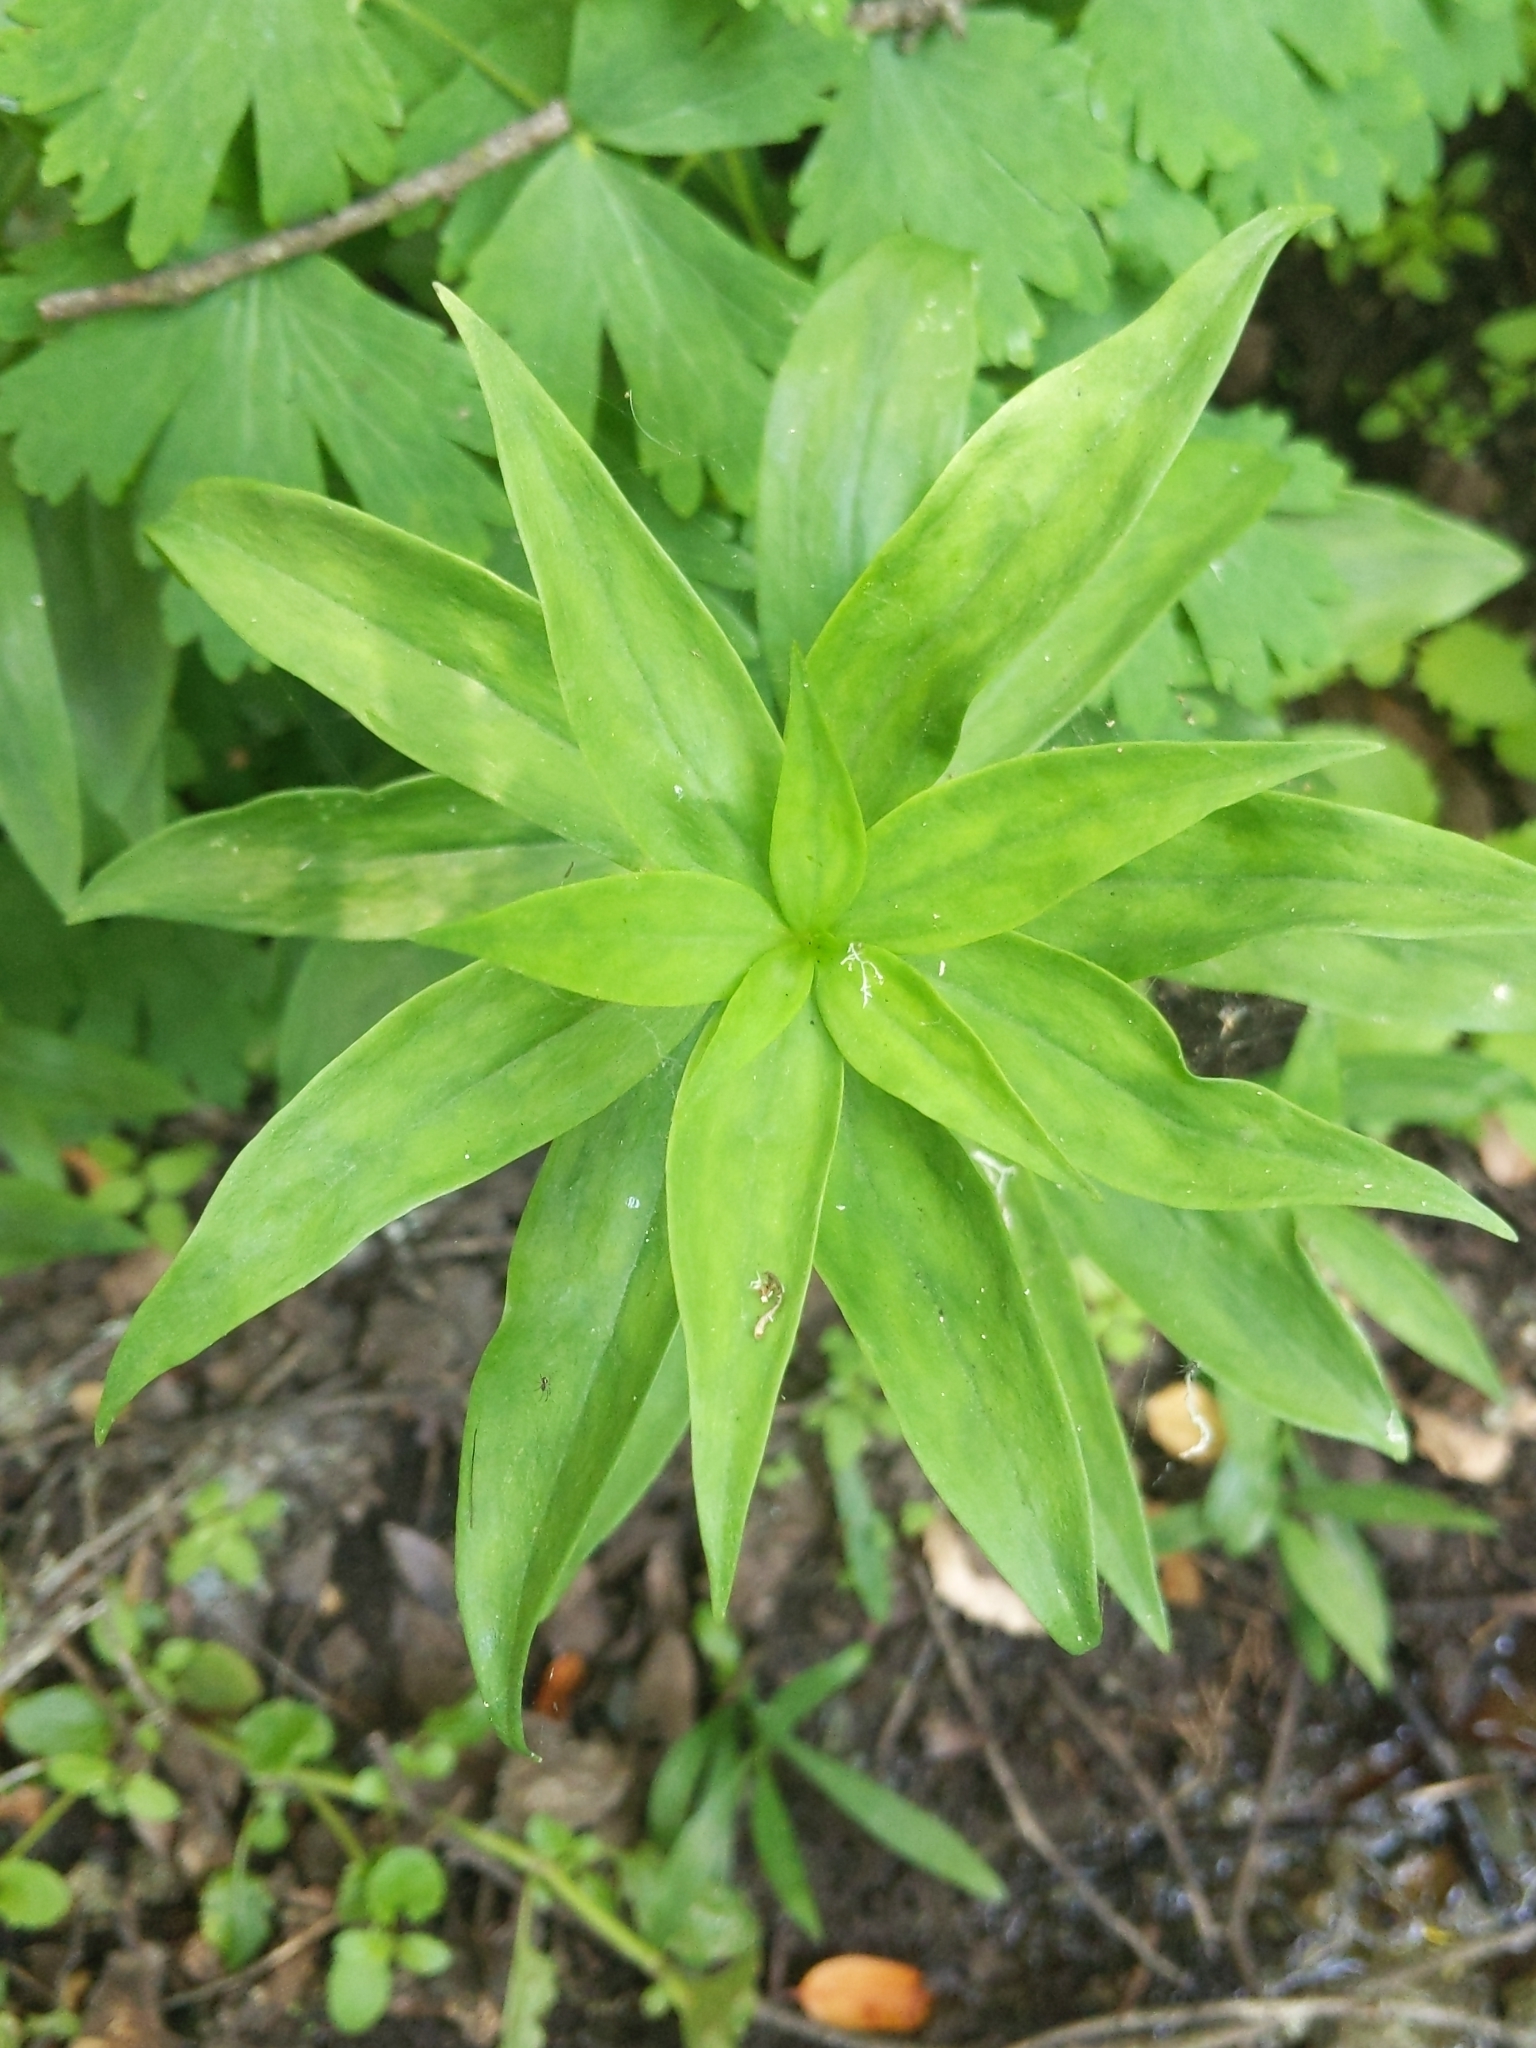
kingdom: Plantae
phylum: Tracheophyta
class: Liliopsida
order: Liliales
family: Liliaceae
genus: Lilium
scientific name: Lilium pardalinum
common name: Panther lily
